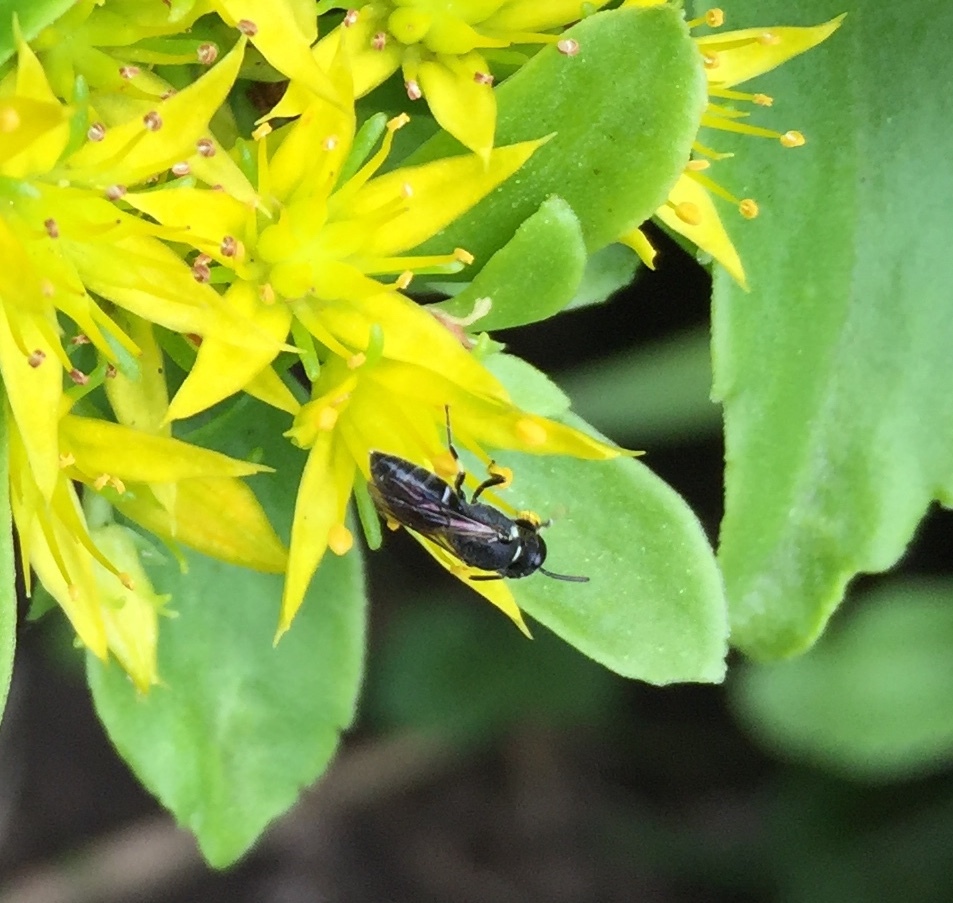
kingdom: Animalia
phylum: Arthropoda
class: Insecta
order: Hymenoptera
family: Colletidae
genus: Hylaeus
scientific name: Hylaeus
